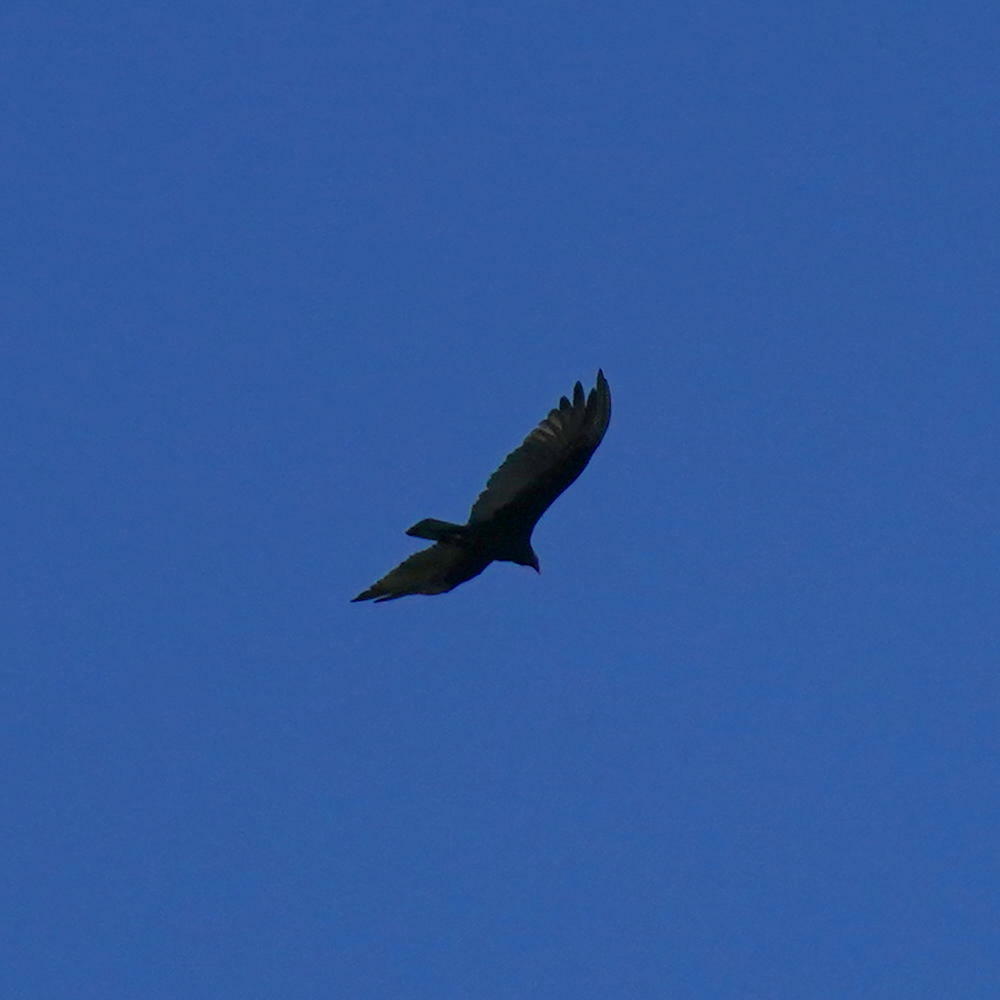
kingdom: Animalia
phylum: Chordata
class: Aves
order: Accipitriformes
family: Cathartidae
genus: Cathartes
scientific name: Cathartes aura
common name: Turkey vulture
